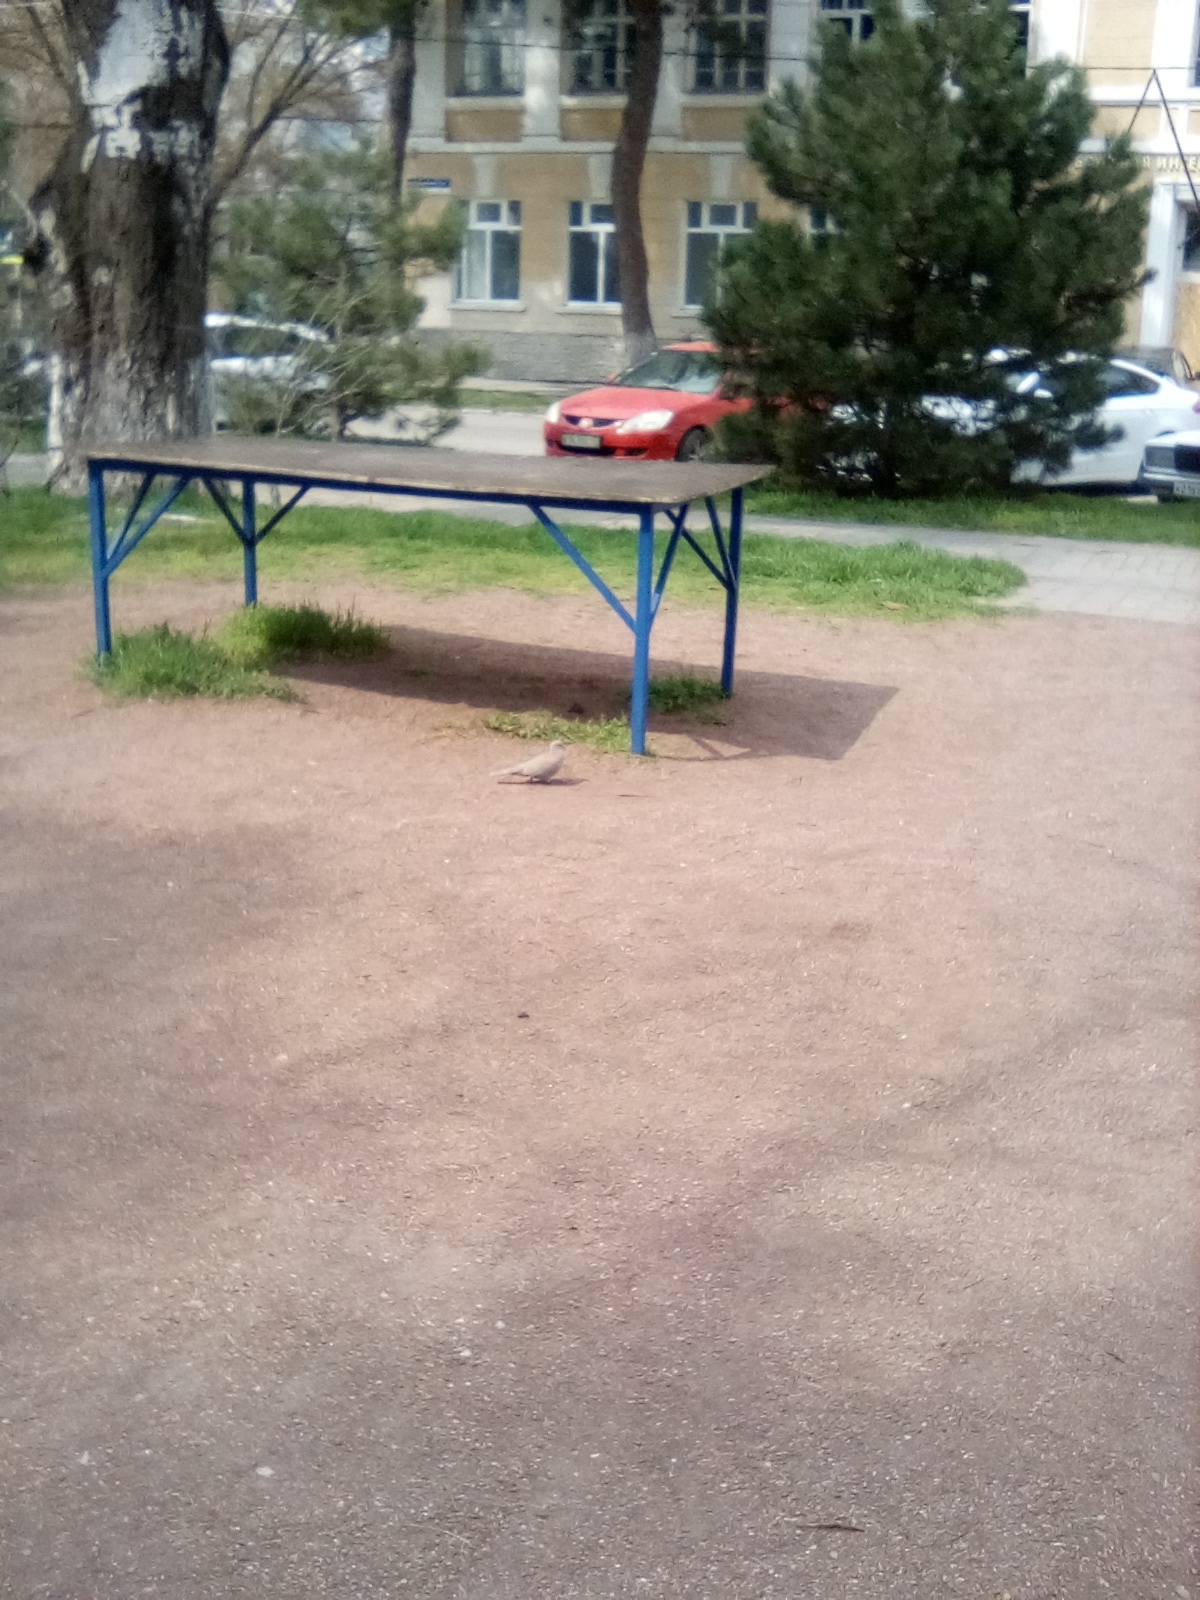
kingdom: Animalia
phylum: Chordata
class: Aves
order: Columbiformes
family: Columbidae
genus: Streptopelia
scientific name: Streptopelia decaocto
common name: Eurasian collared dove
